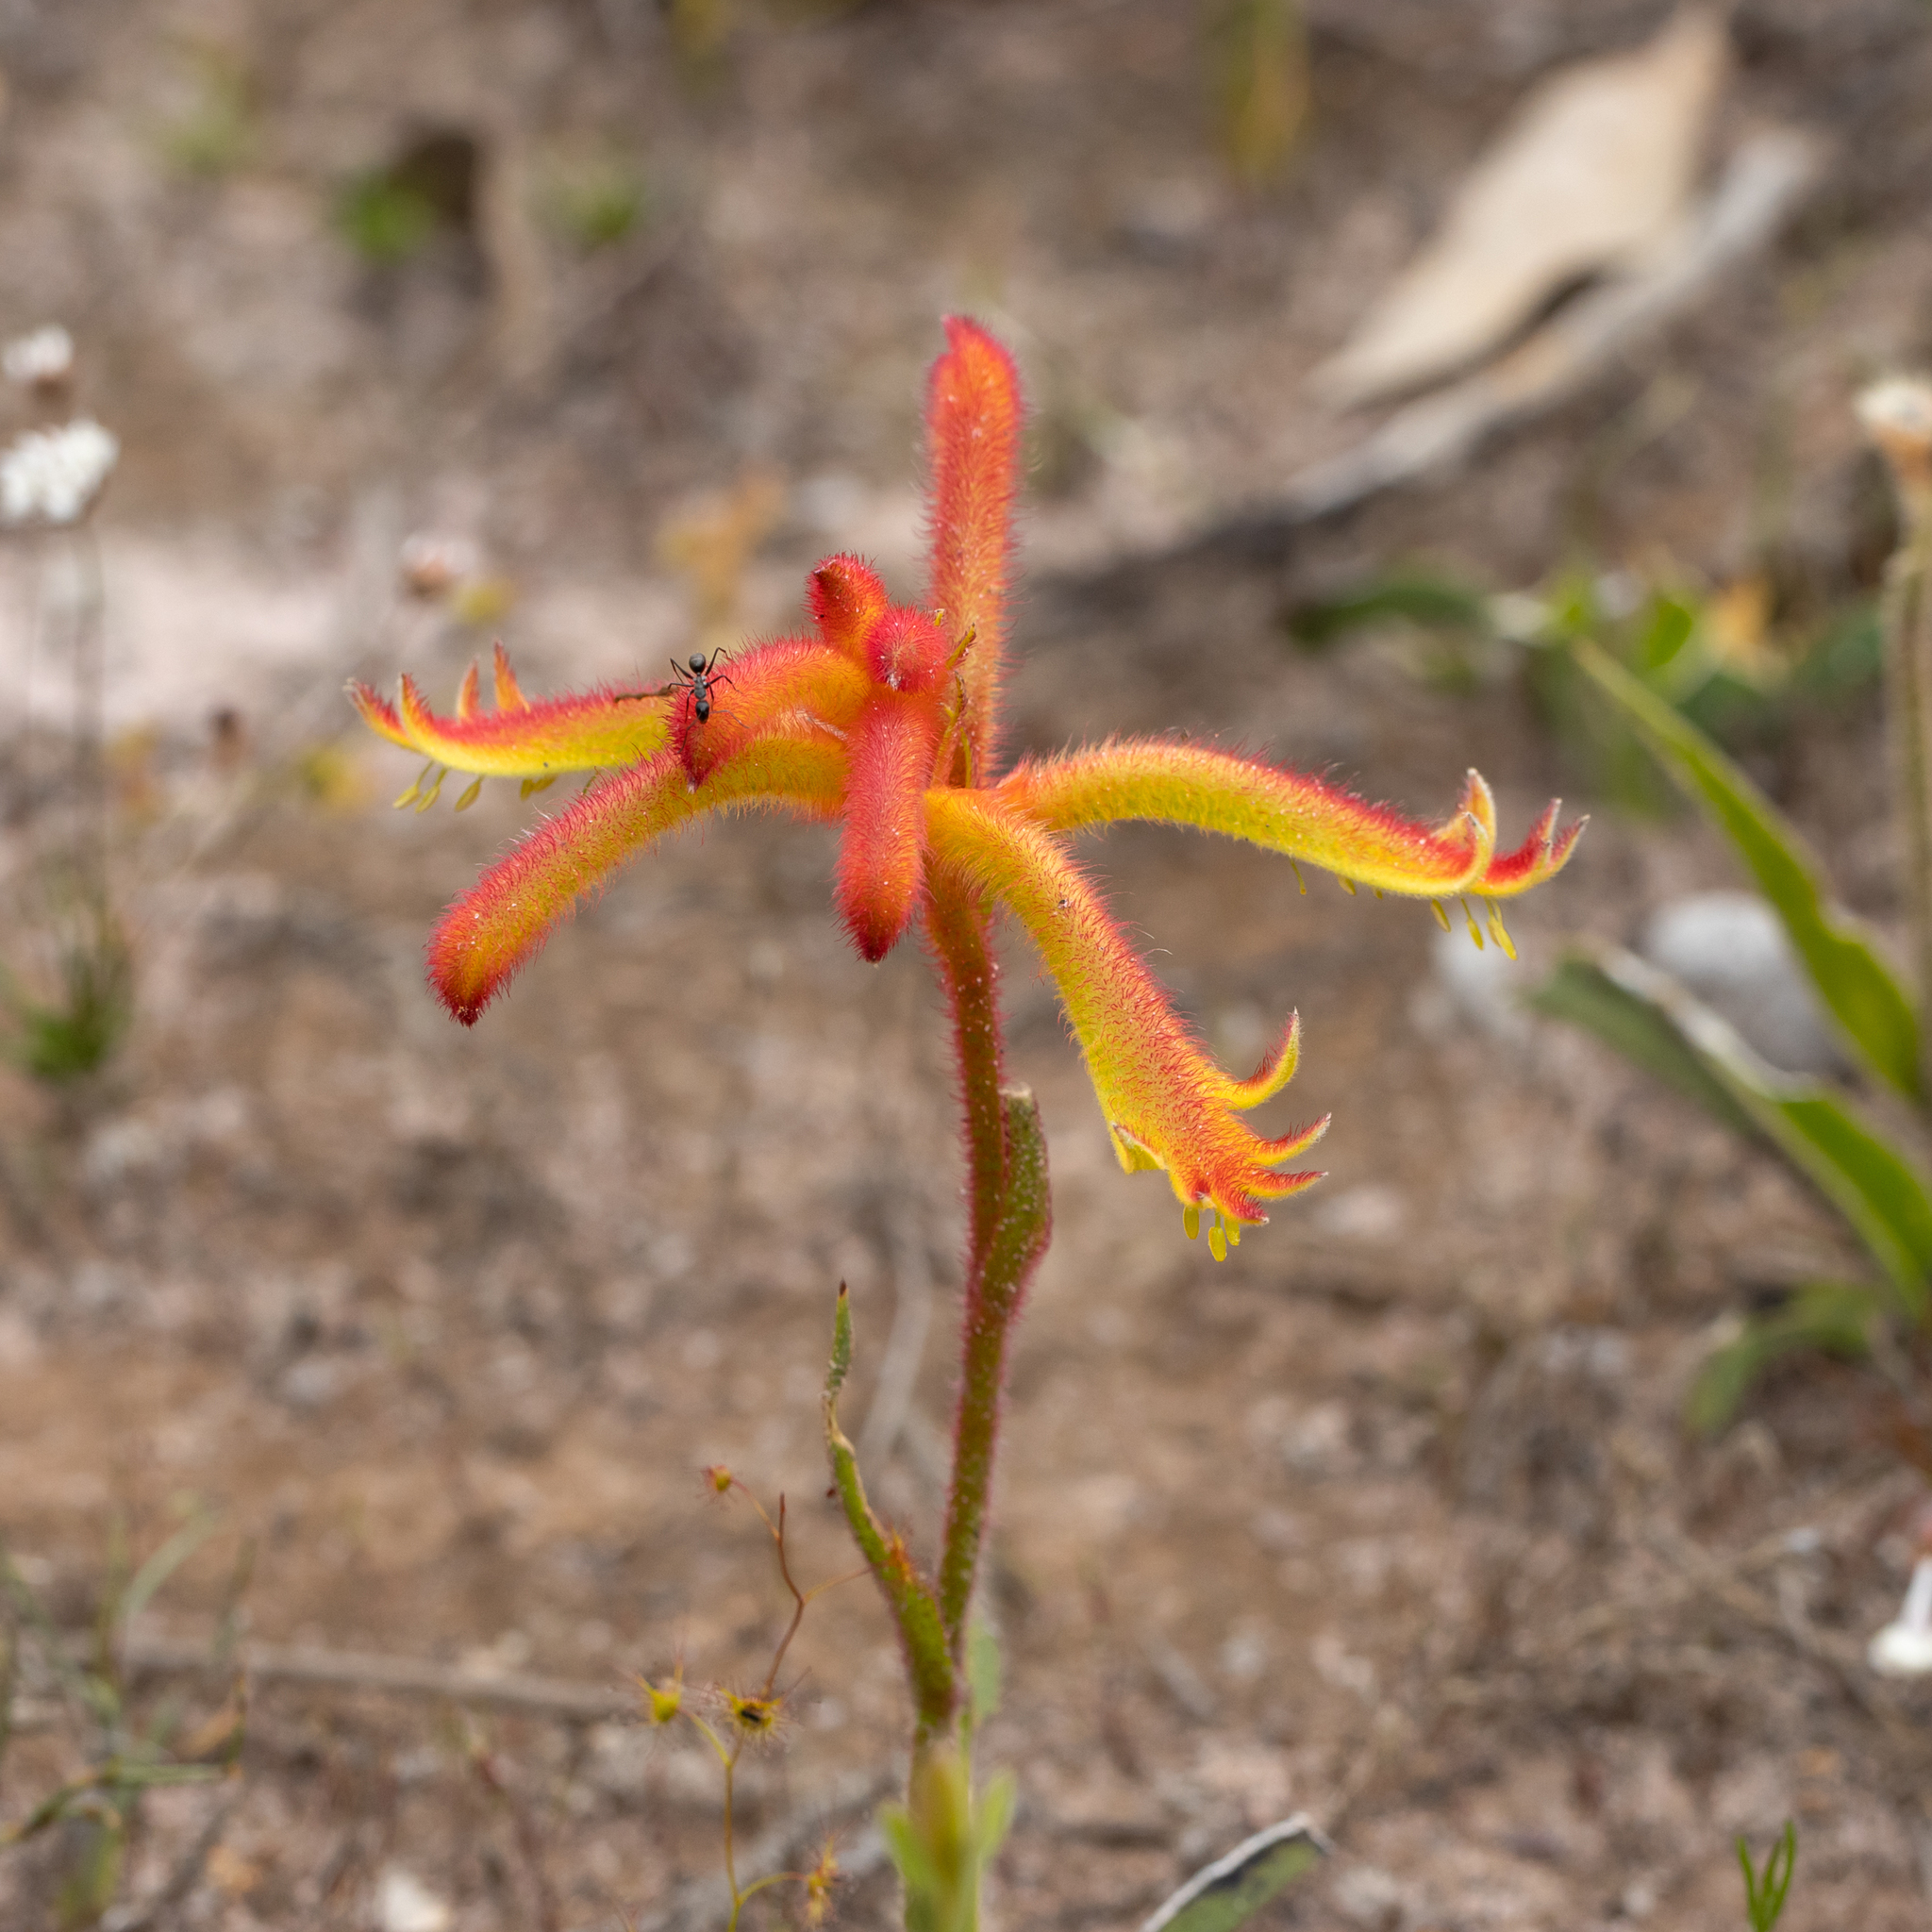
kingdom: Plantae
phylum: Tracheophyta
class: Liliopsida
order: Commelinales
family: Haemodoraceae
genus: Anigozanthos
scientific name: Anigozanthos humilis
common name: Cat's-paw
